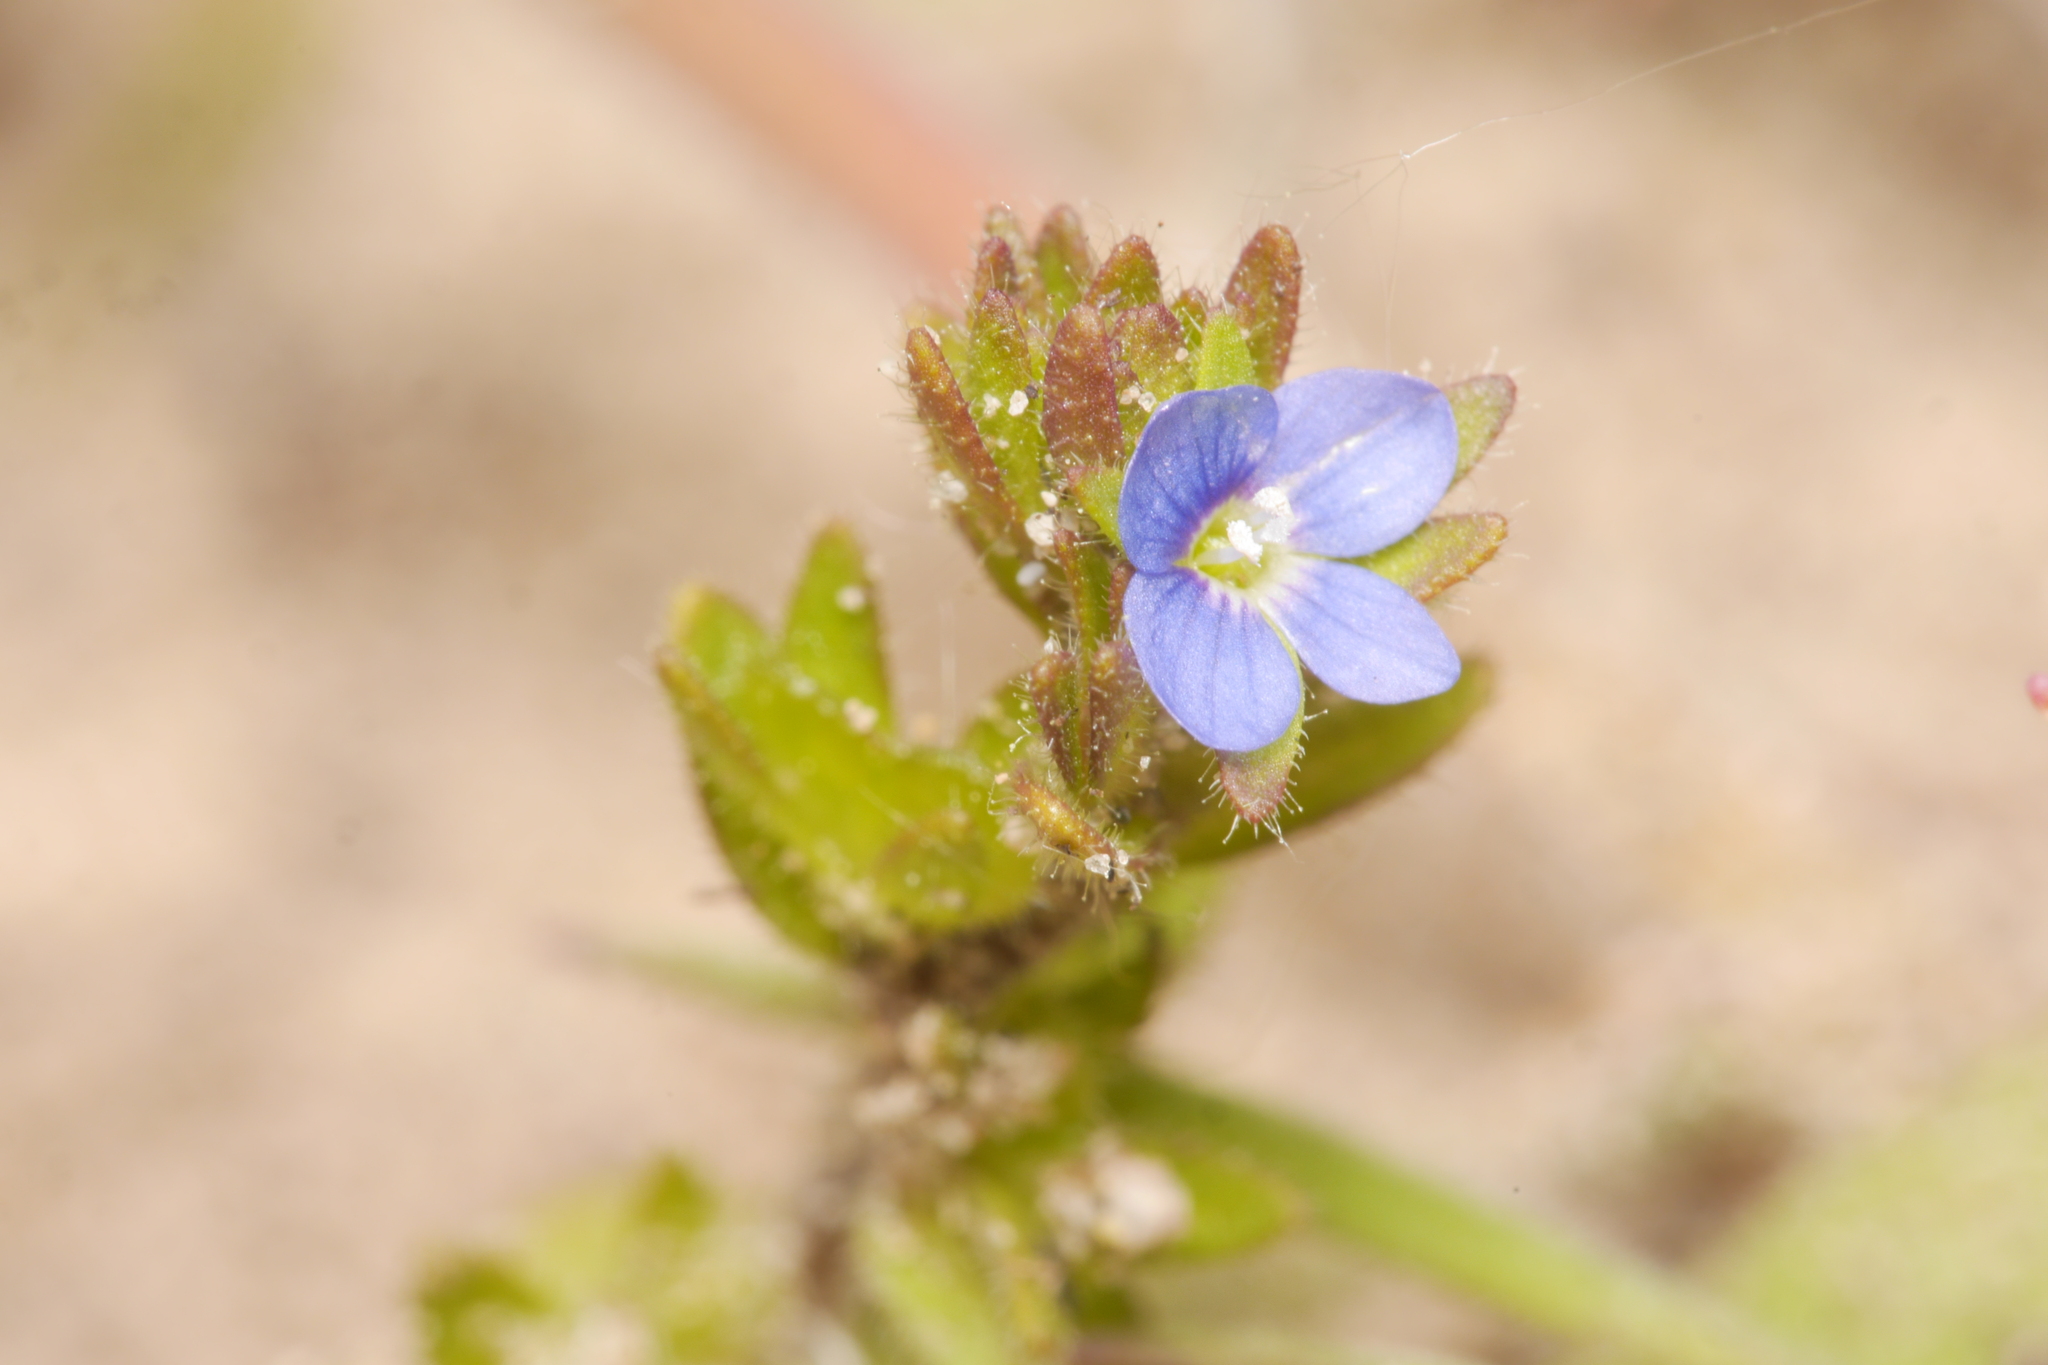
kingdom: Plantae
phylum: Tracheophyta
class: Magnoliopsida
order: Lamiales
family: Plantaginaceae
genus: Veronica
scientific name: Veronica arvensis
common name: Corn speedwell
